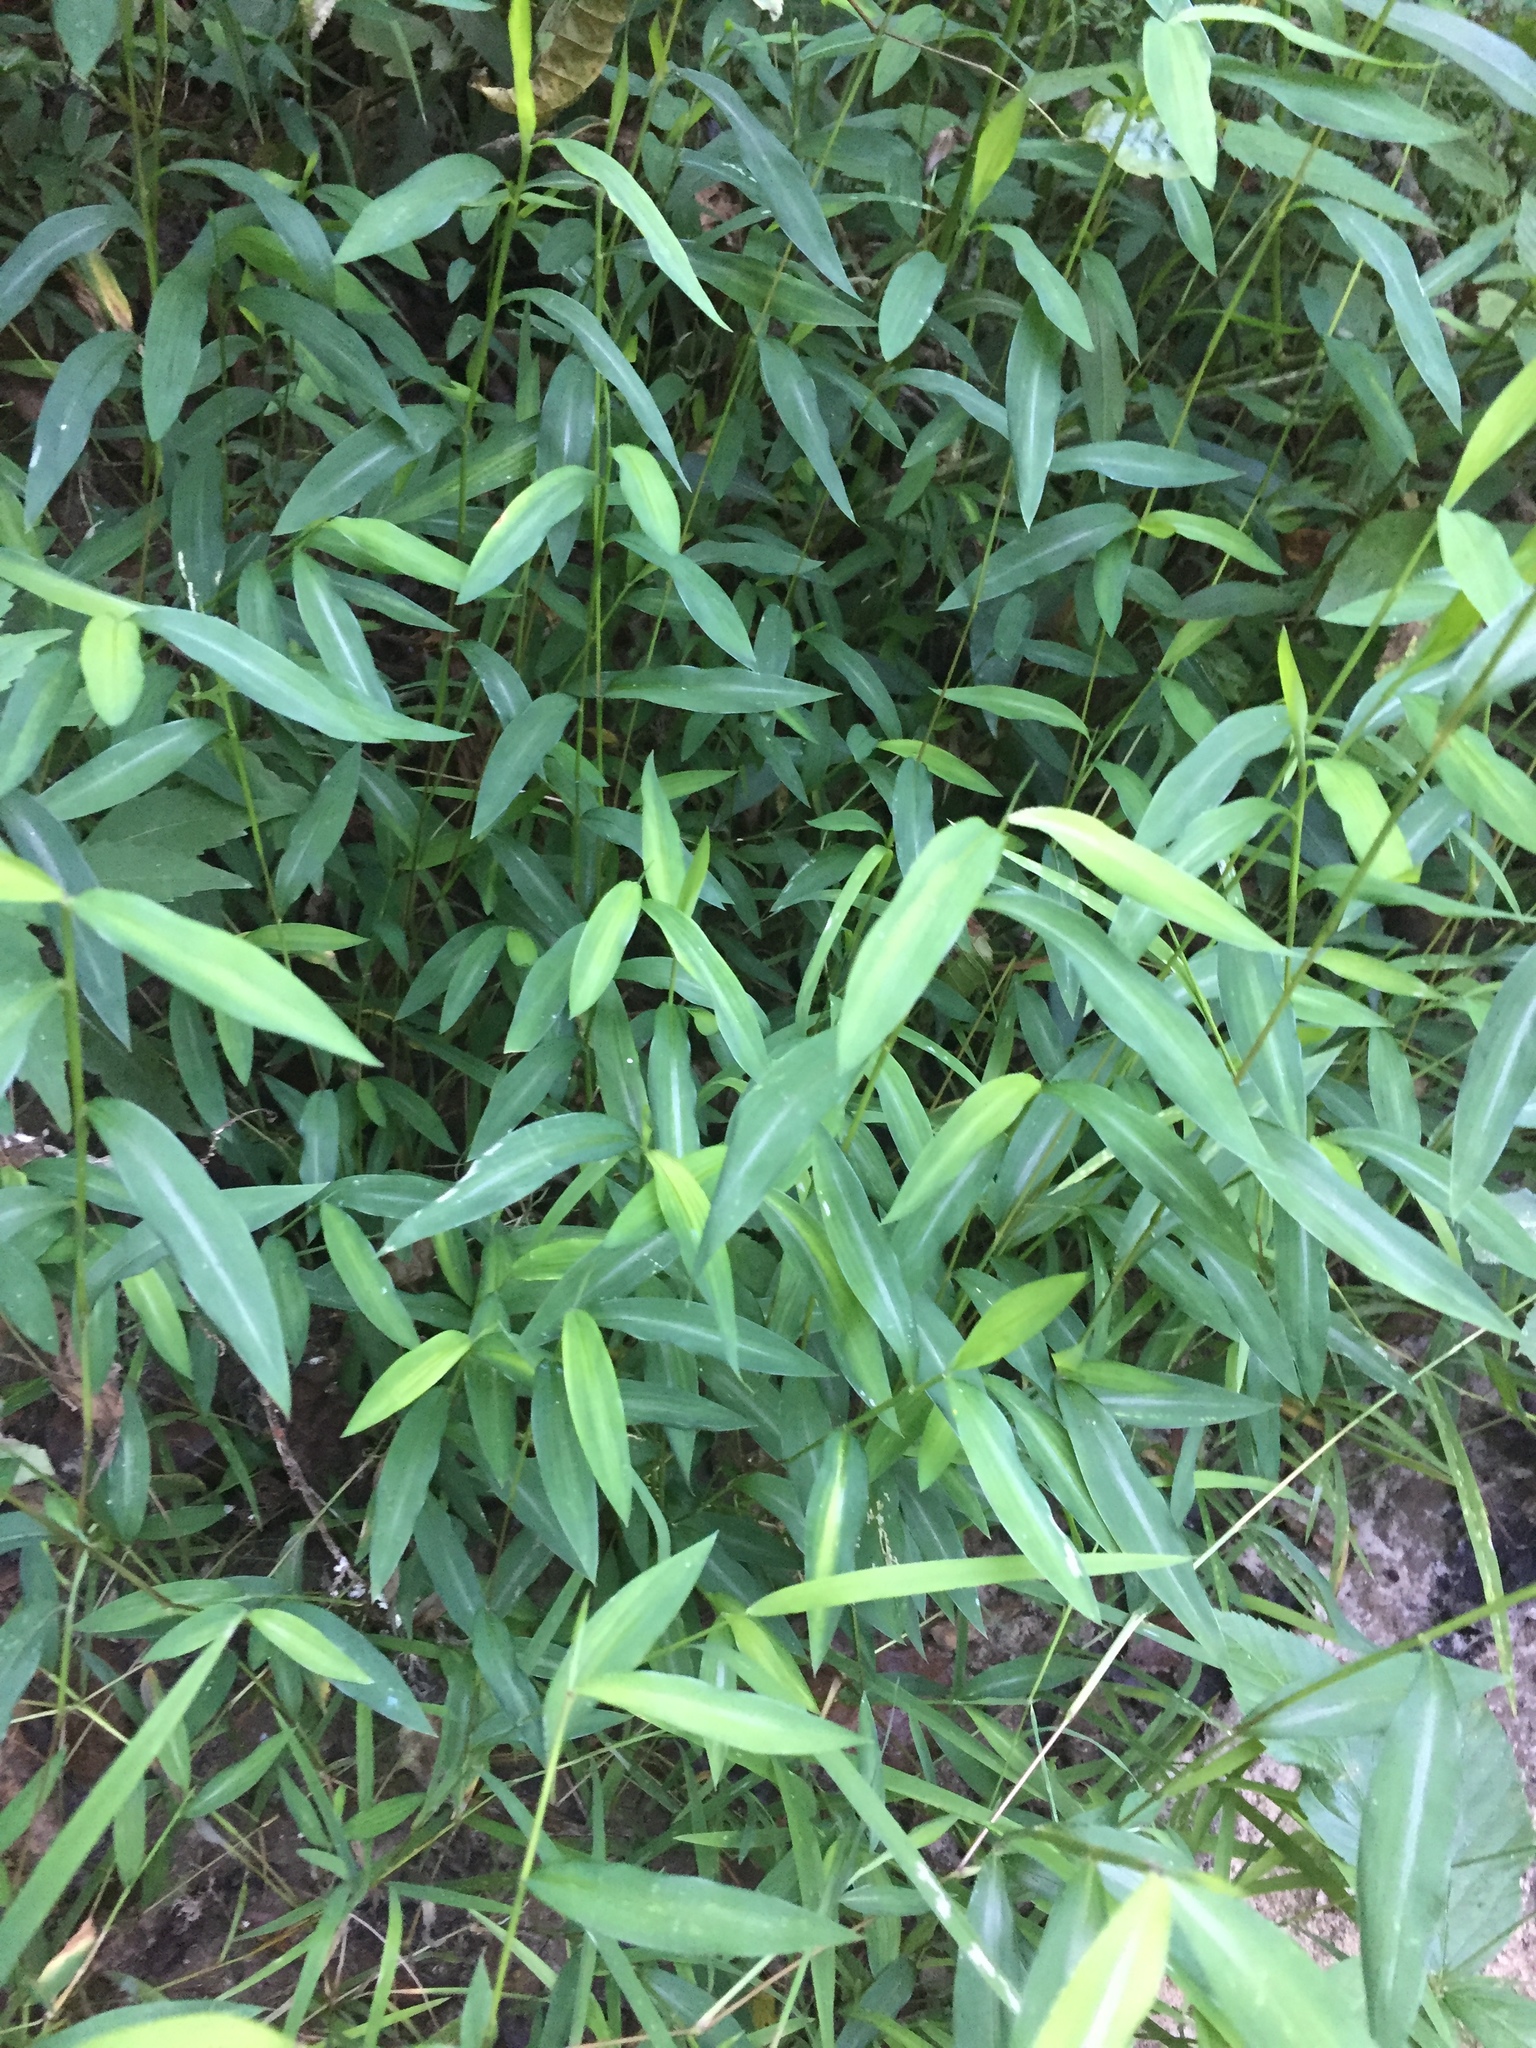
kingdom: Plantae
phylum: Tracheophyta
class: Liliopsida
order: Poales
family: Poaceae
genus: Microstegium
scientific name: Microstegium vimineum
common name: Japanese stiltgrass
